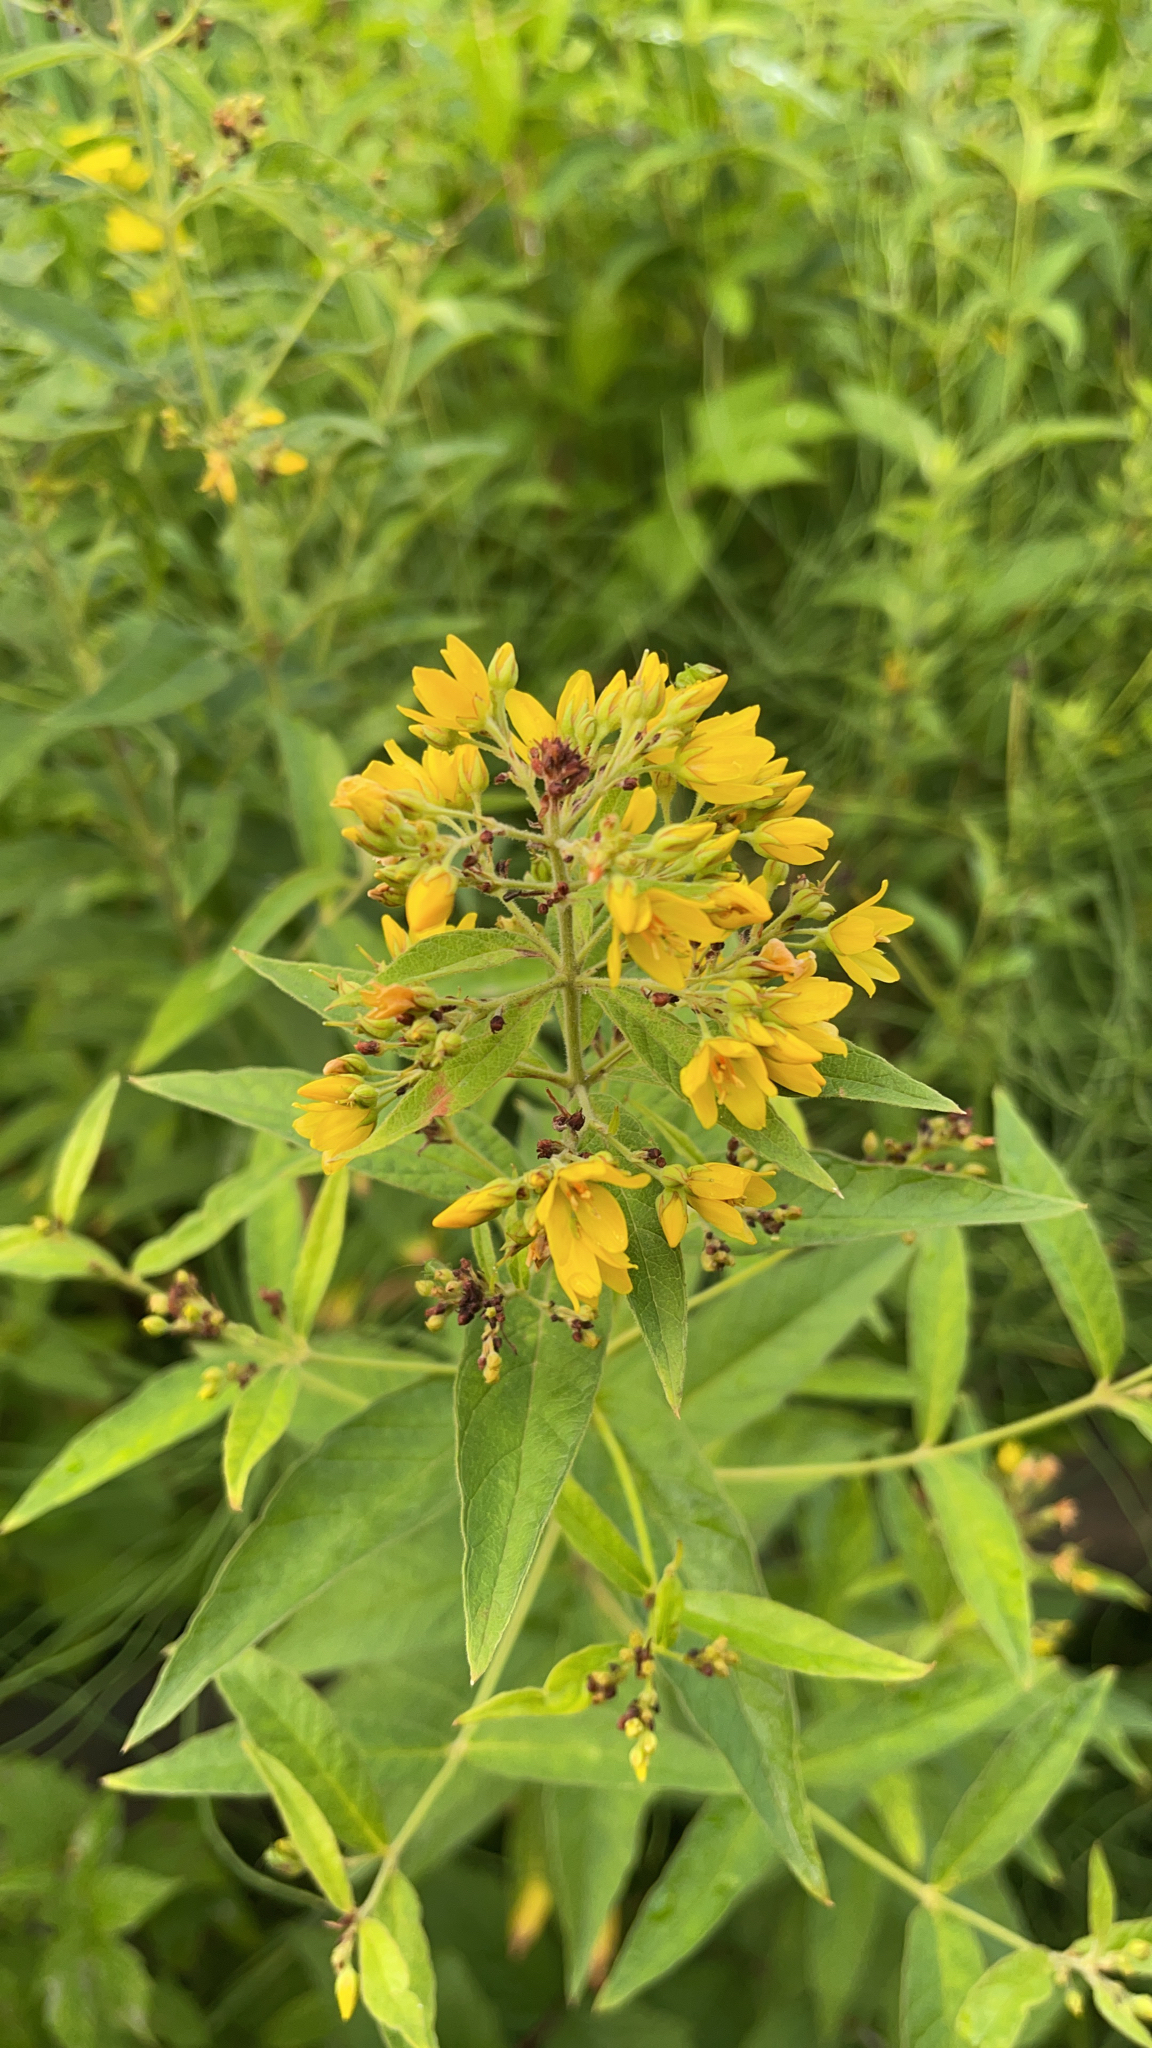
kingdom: Plantae
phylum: Tracheophyta
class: Magnoliopsida
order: Ericales
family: Primulaceae
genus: Lysimachia
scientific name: Lysimachia vulgaris
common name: Yellow loosestrife
